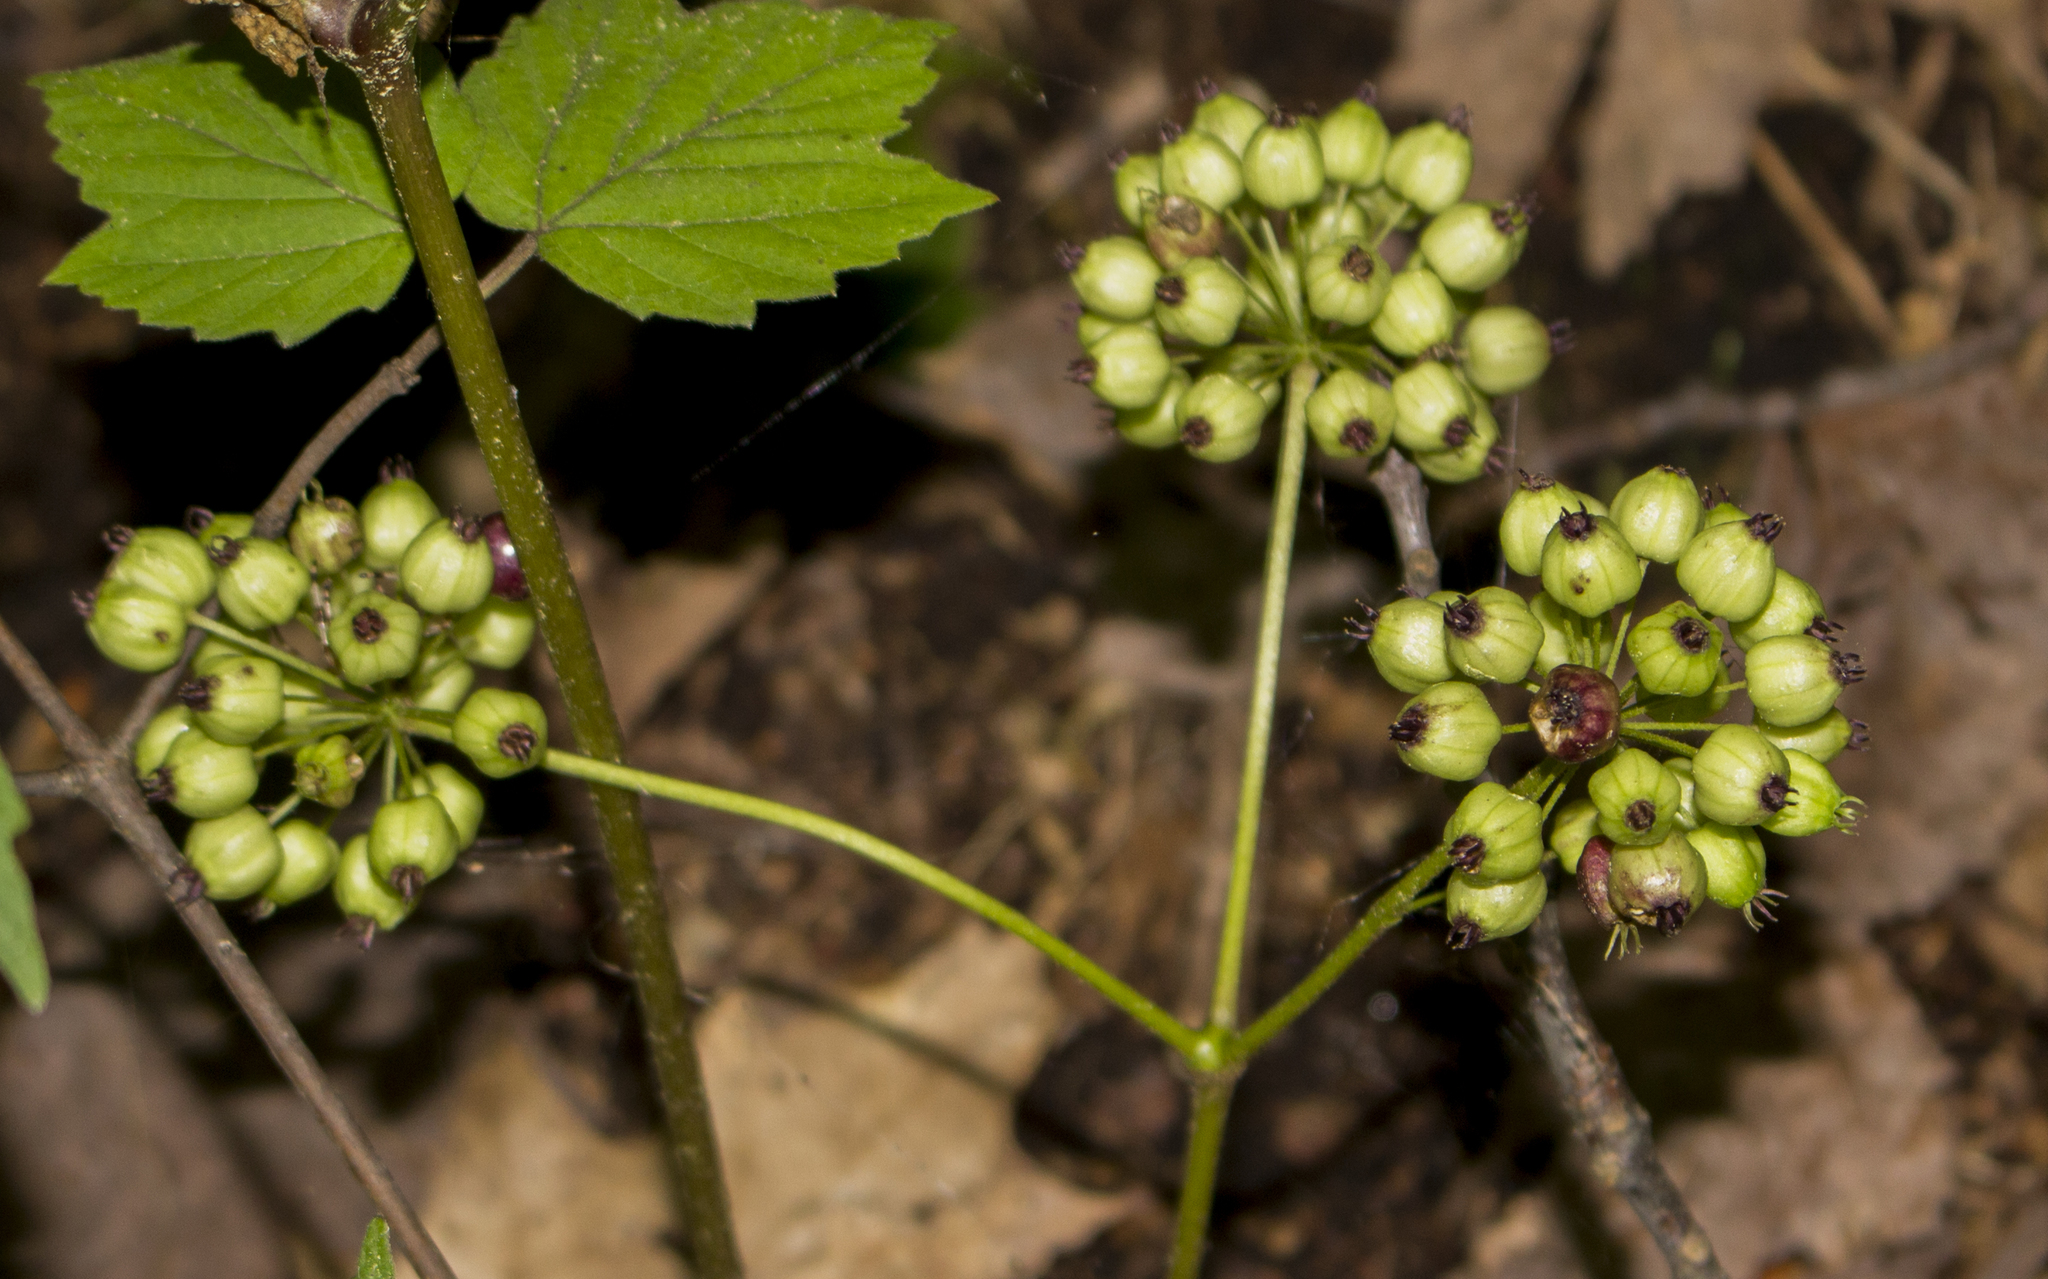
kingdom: Plantae
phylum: Tracheophyta
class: Magnoliopsida
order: Apiales
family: Araliaceae
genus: Aralia
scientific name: Aralia nudicaulis
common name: Wild sarsaparilla
